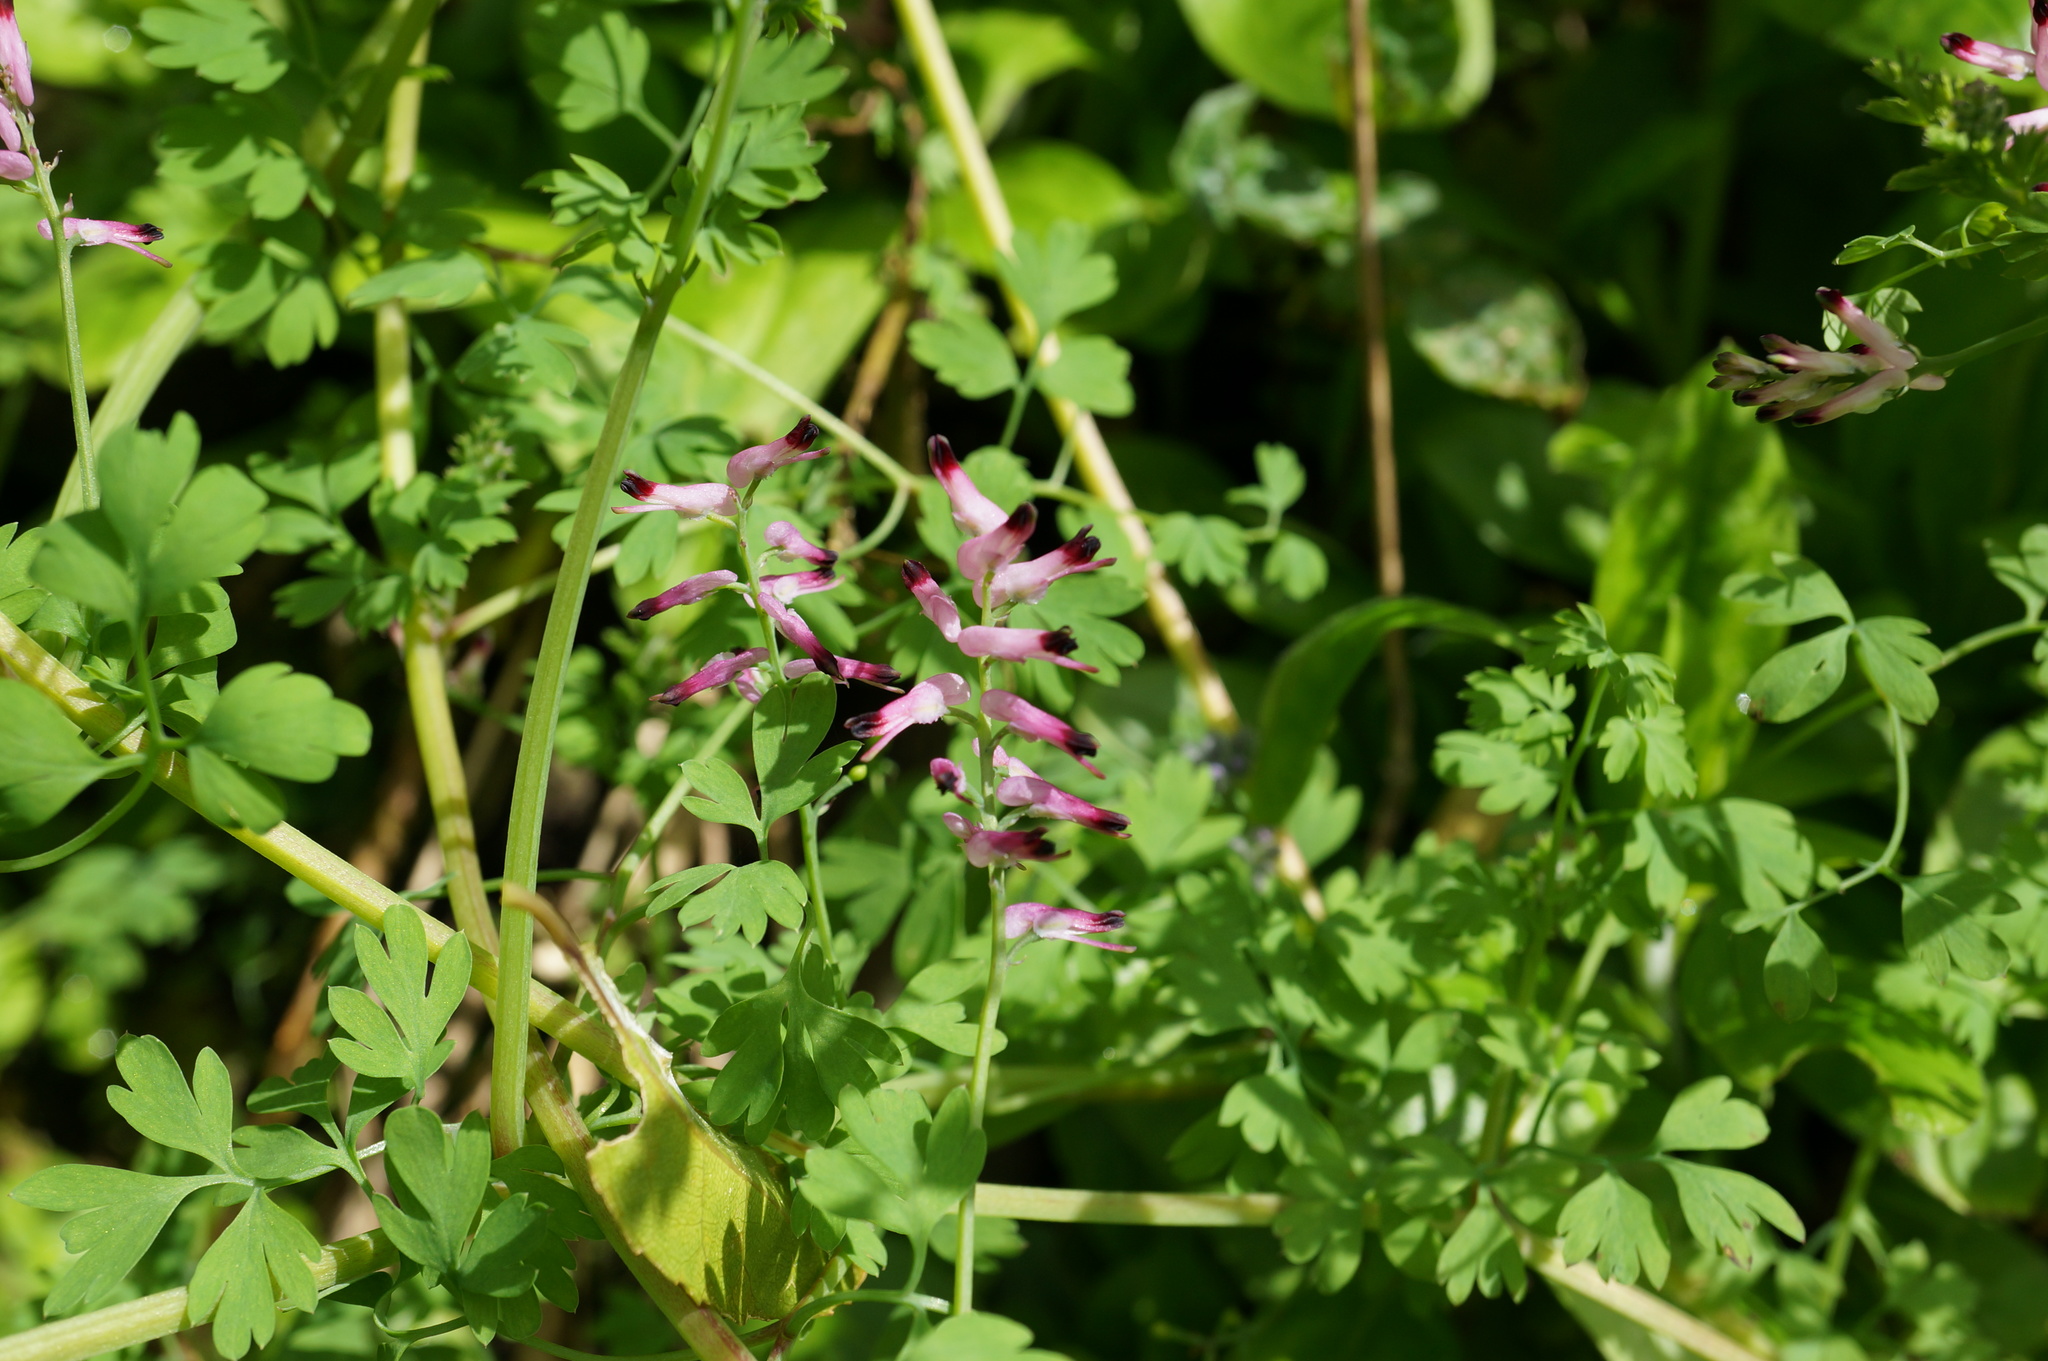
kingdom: Plantae
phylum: Tracheophyta
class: Magnoliopsida
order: Ranunculales
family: Papaveraceae
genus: Fumaria
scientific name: Fumaria muralis
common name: Common ramping-fumitory
